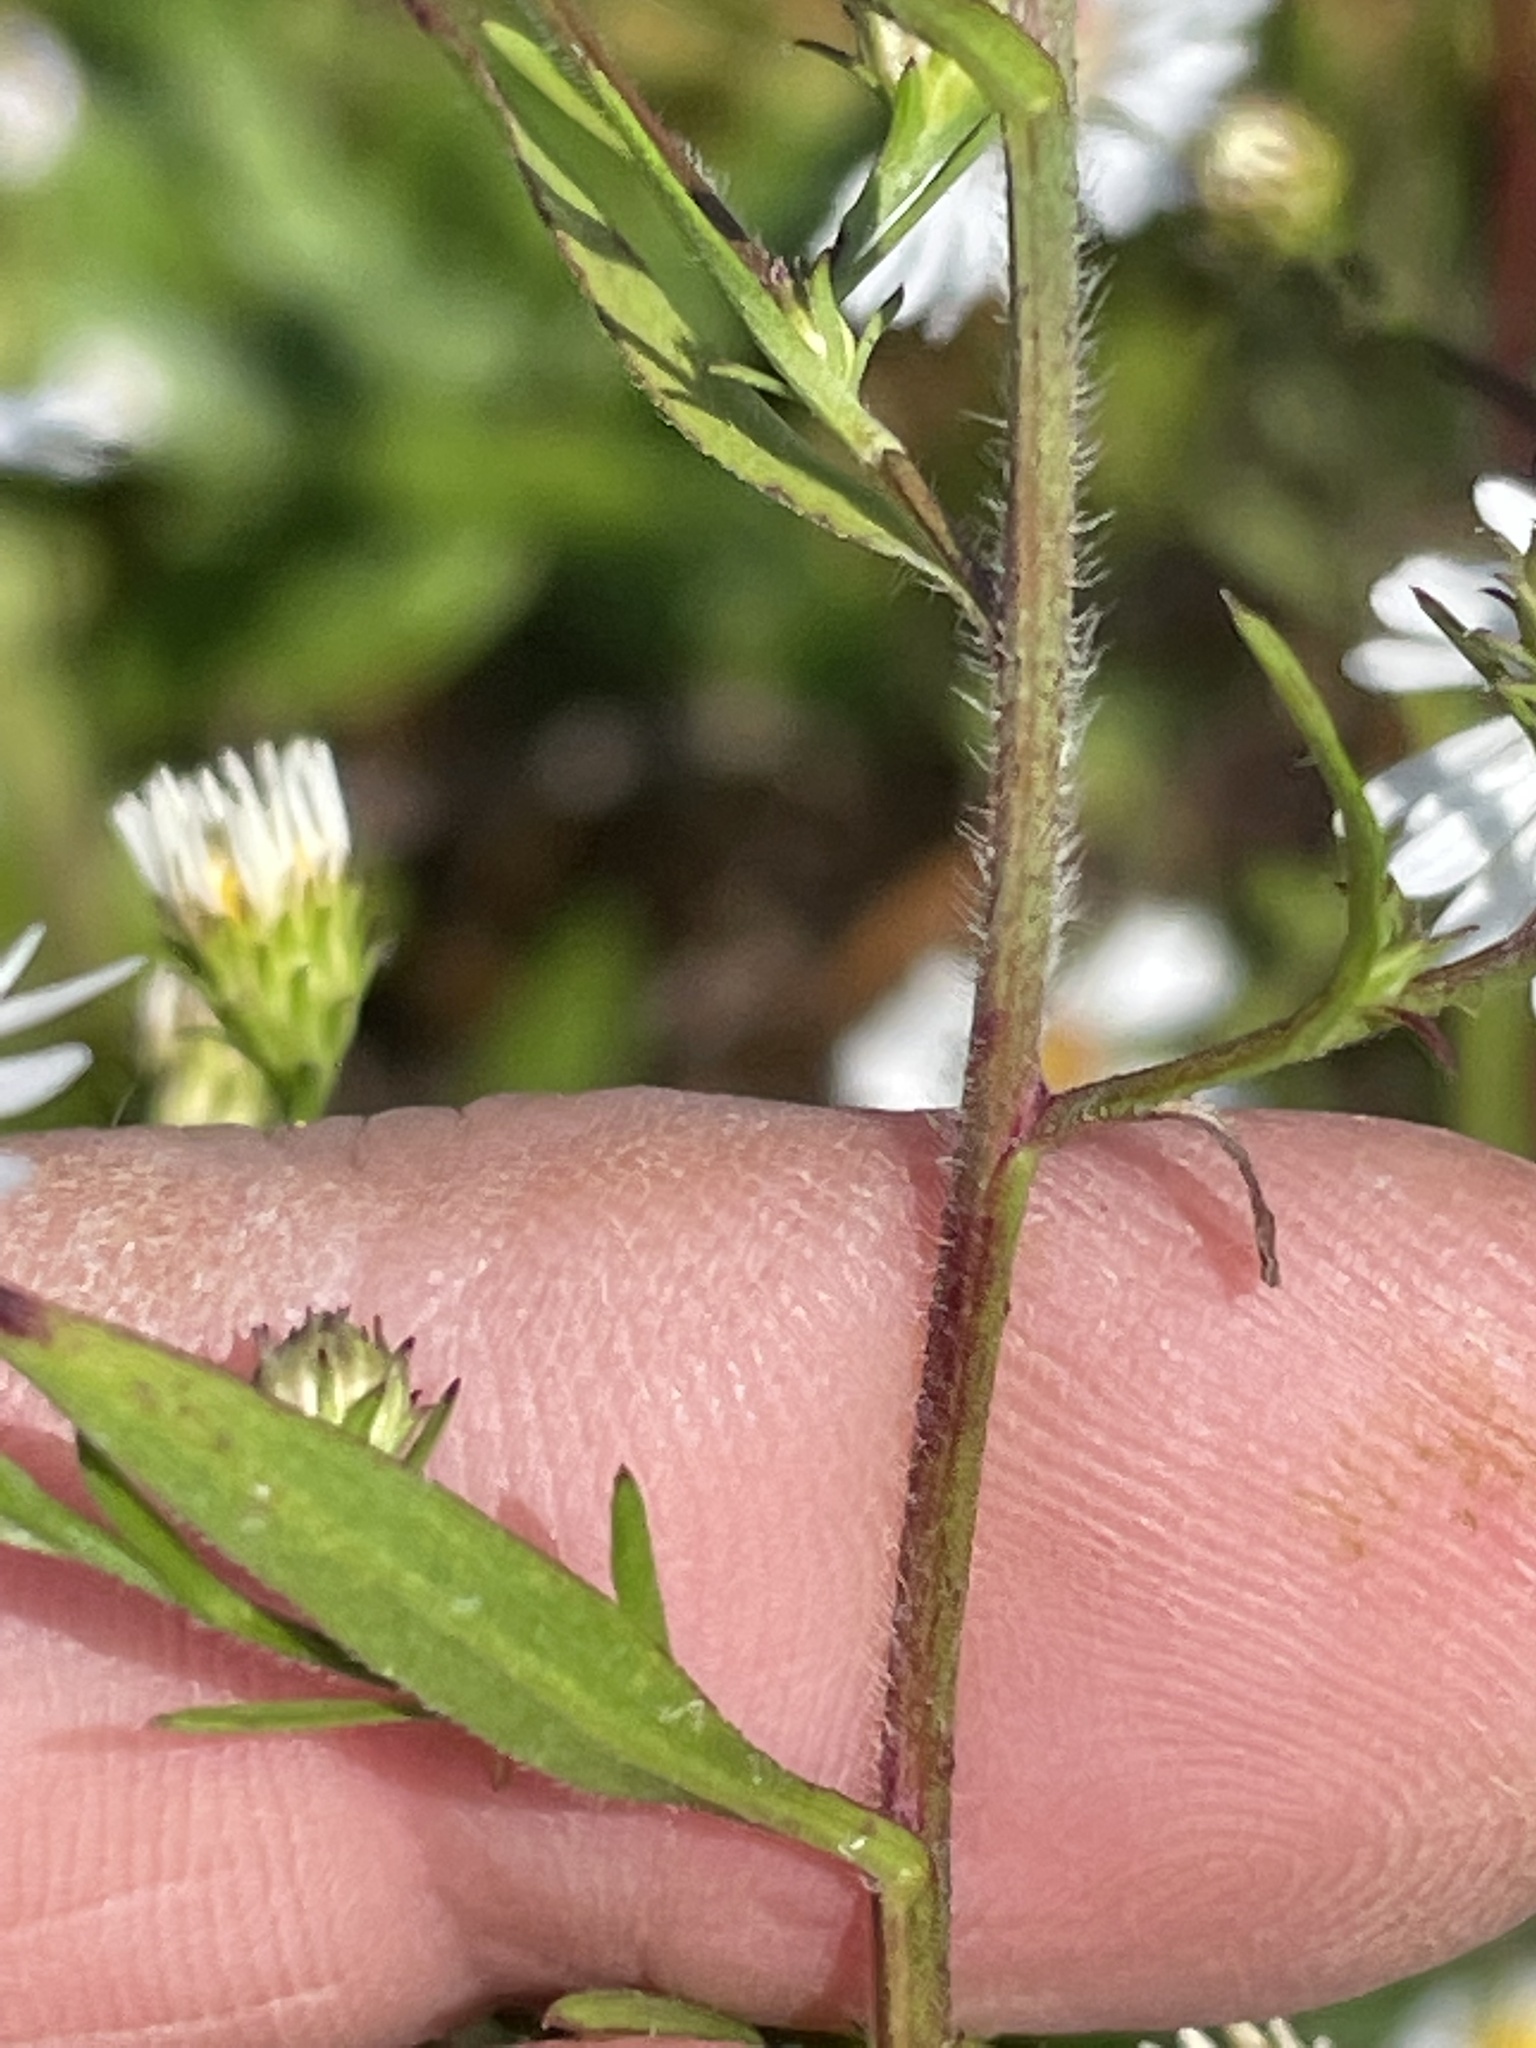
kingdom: Plantae
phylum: Tracheophyta
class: Magnoliopsida
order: Asterales
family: Asteraceae
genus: Symphyotrichum
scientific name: Symphyotrichum pilosum
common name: Awl aster
